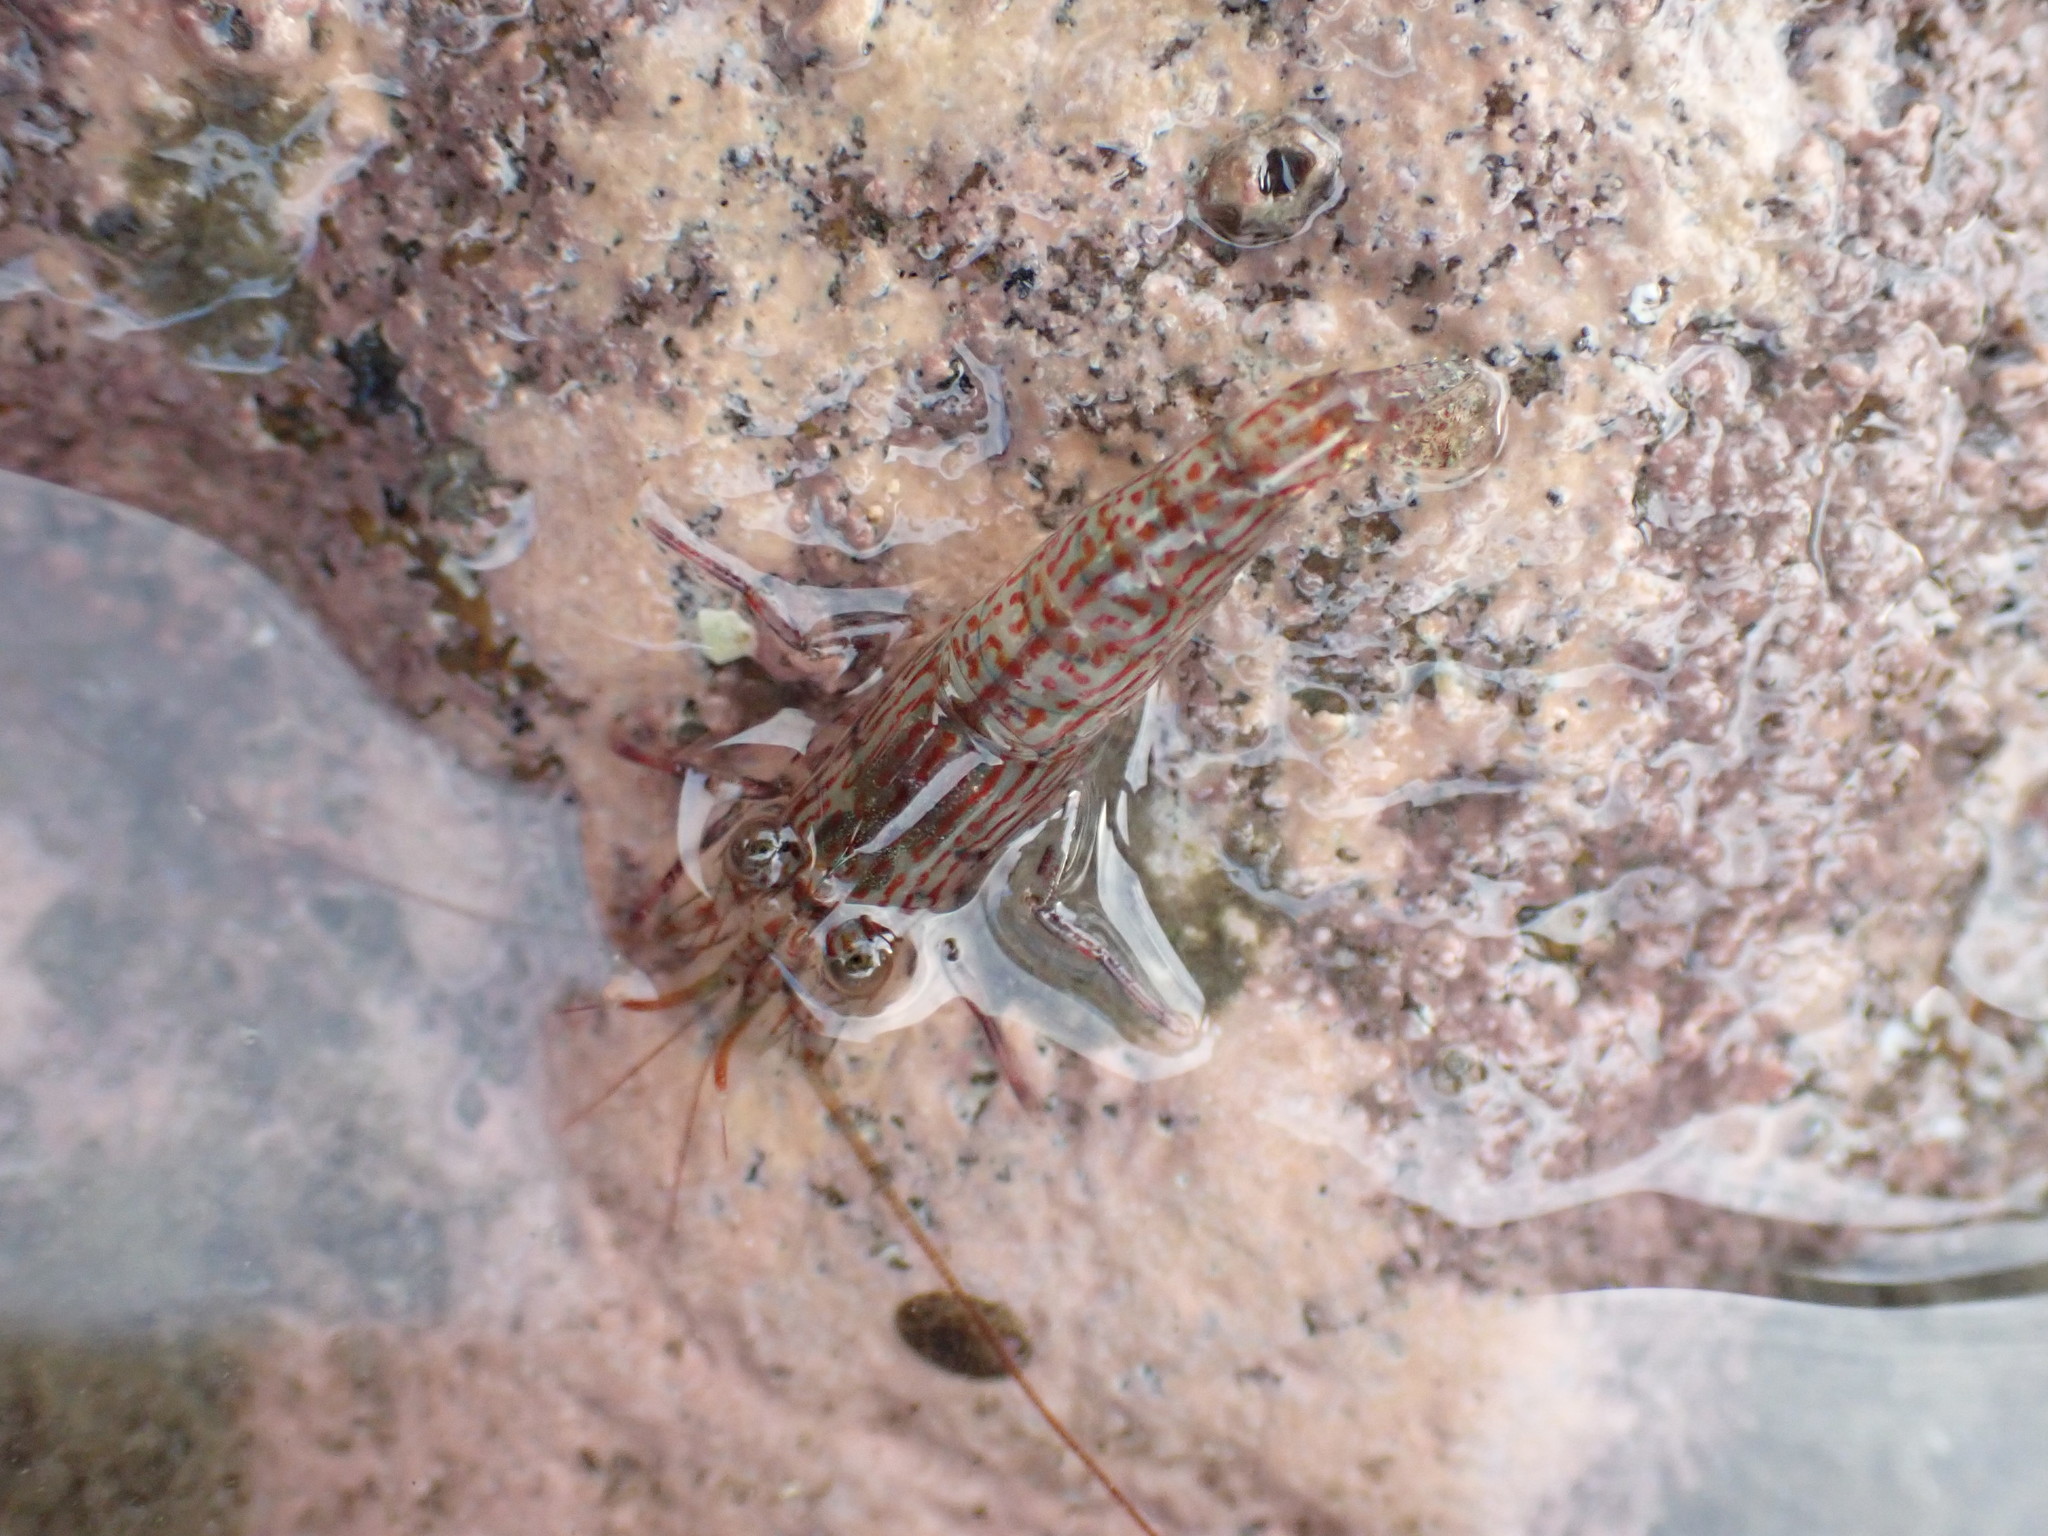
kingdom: Animalia
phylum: Arthropoda
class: Malacostraca
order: Decapoda
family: Hippolytidae
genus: Alope
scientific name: Alope spinifrons
